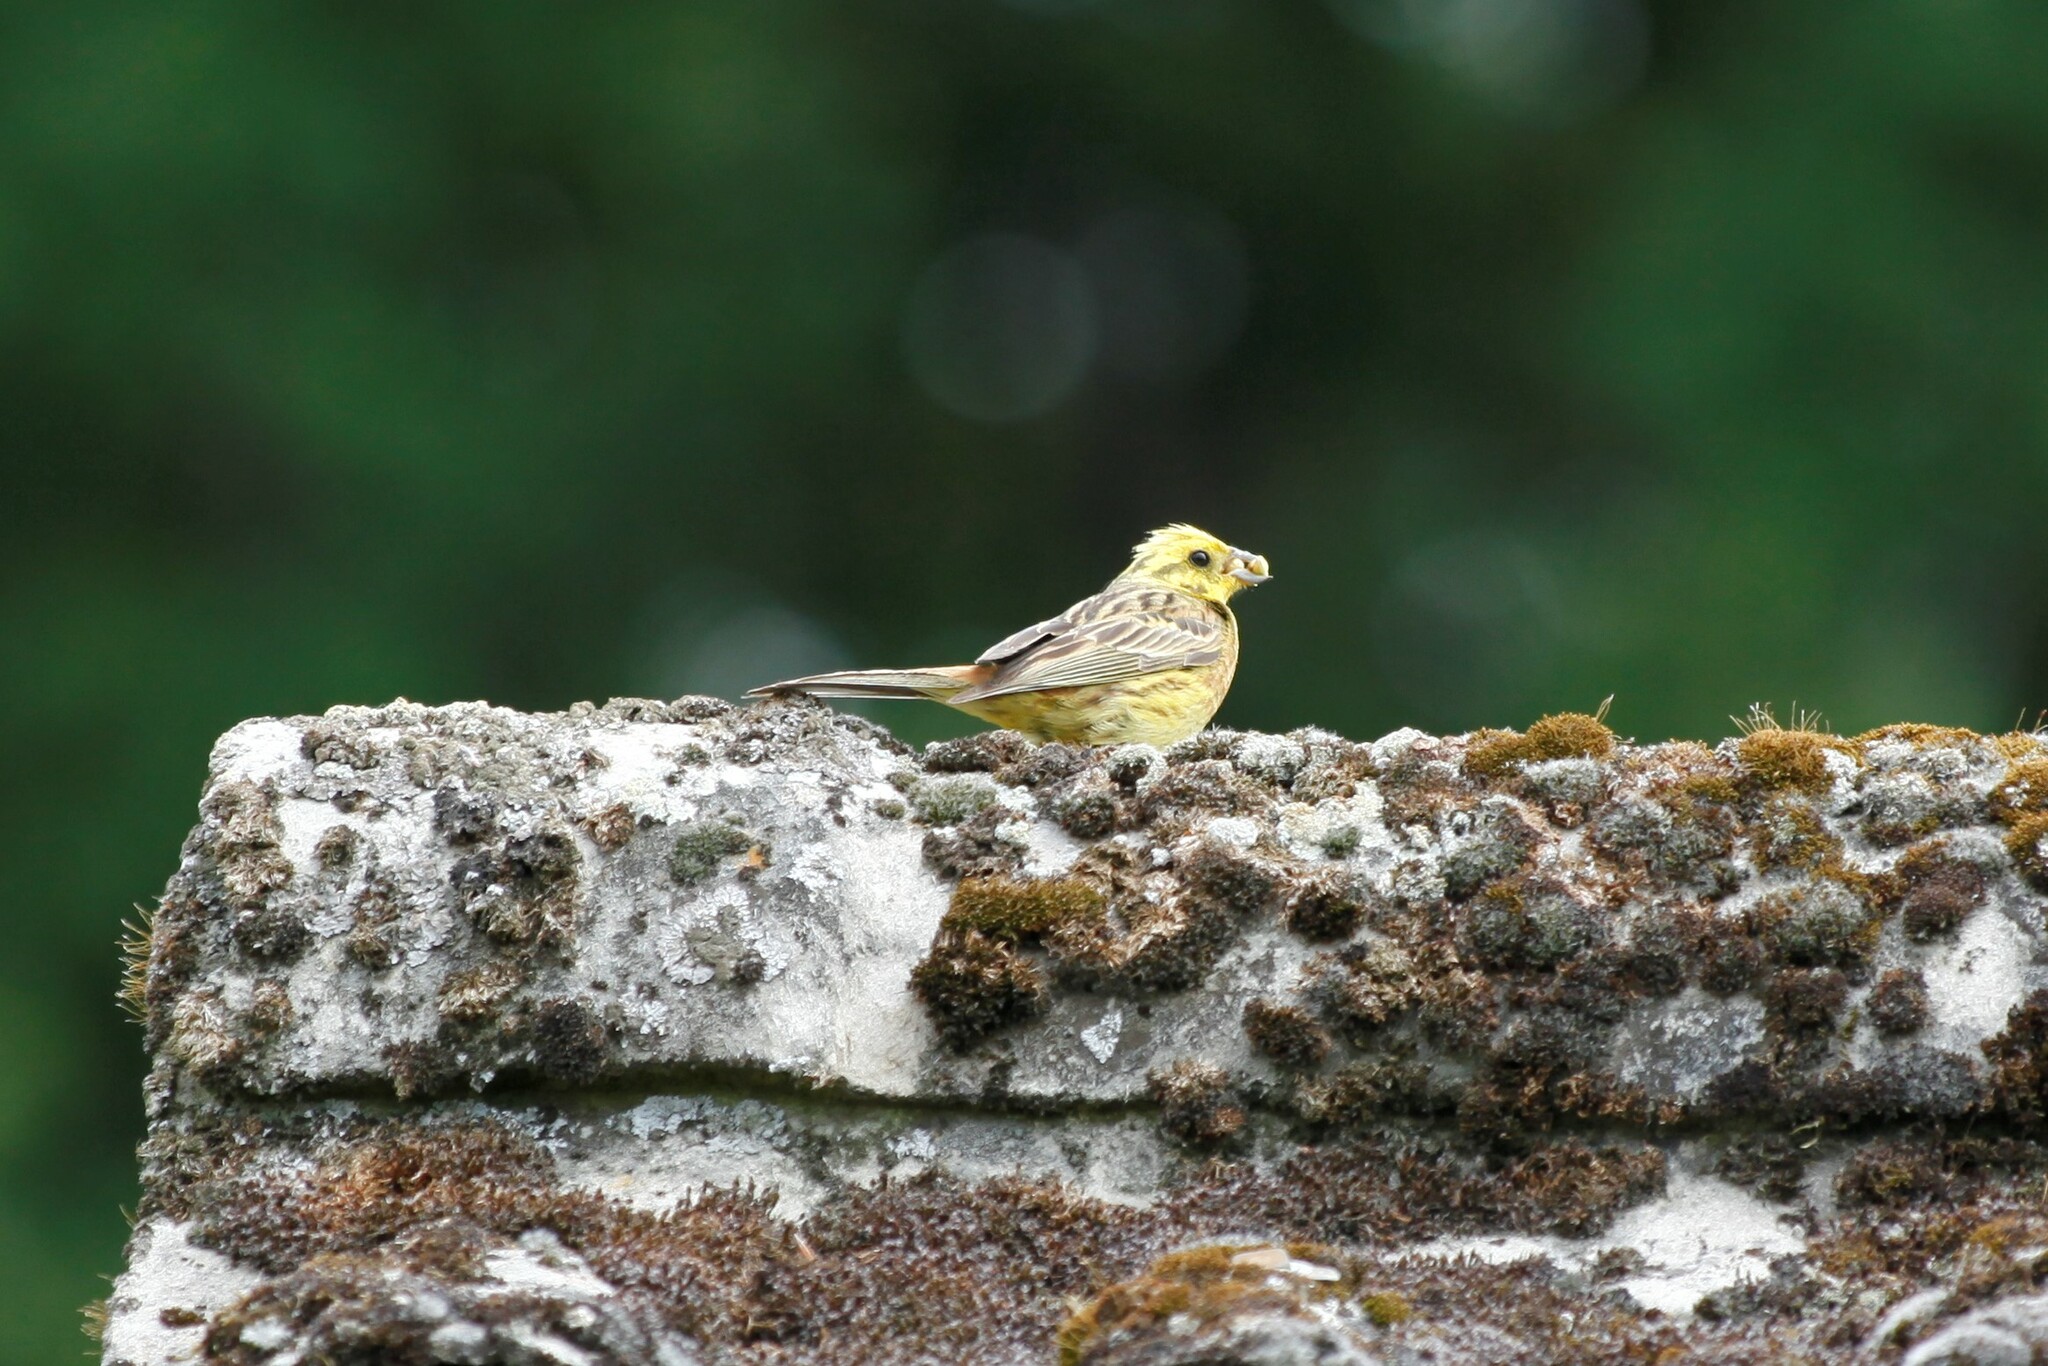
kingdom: Animalia
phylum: Chordata
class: Aves
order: Passeriformes
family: Emberizidae
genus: Emberiza
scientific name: Emberiza citrinella
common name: Yellowhammer
